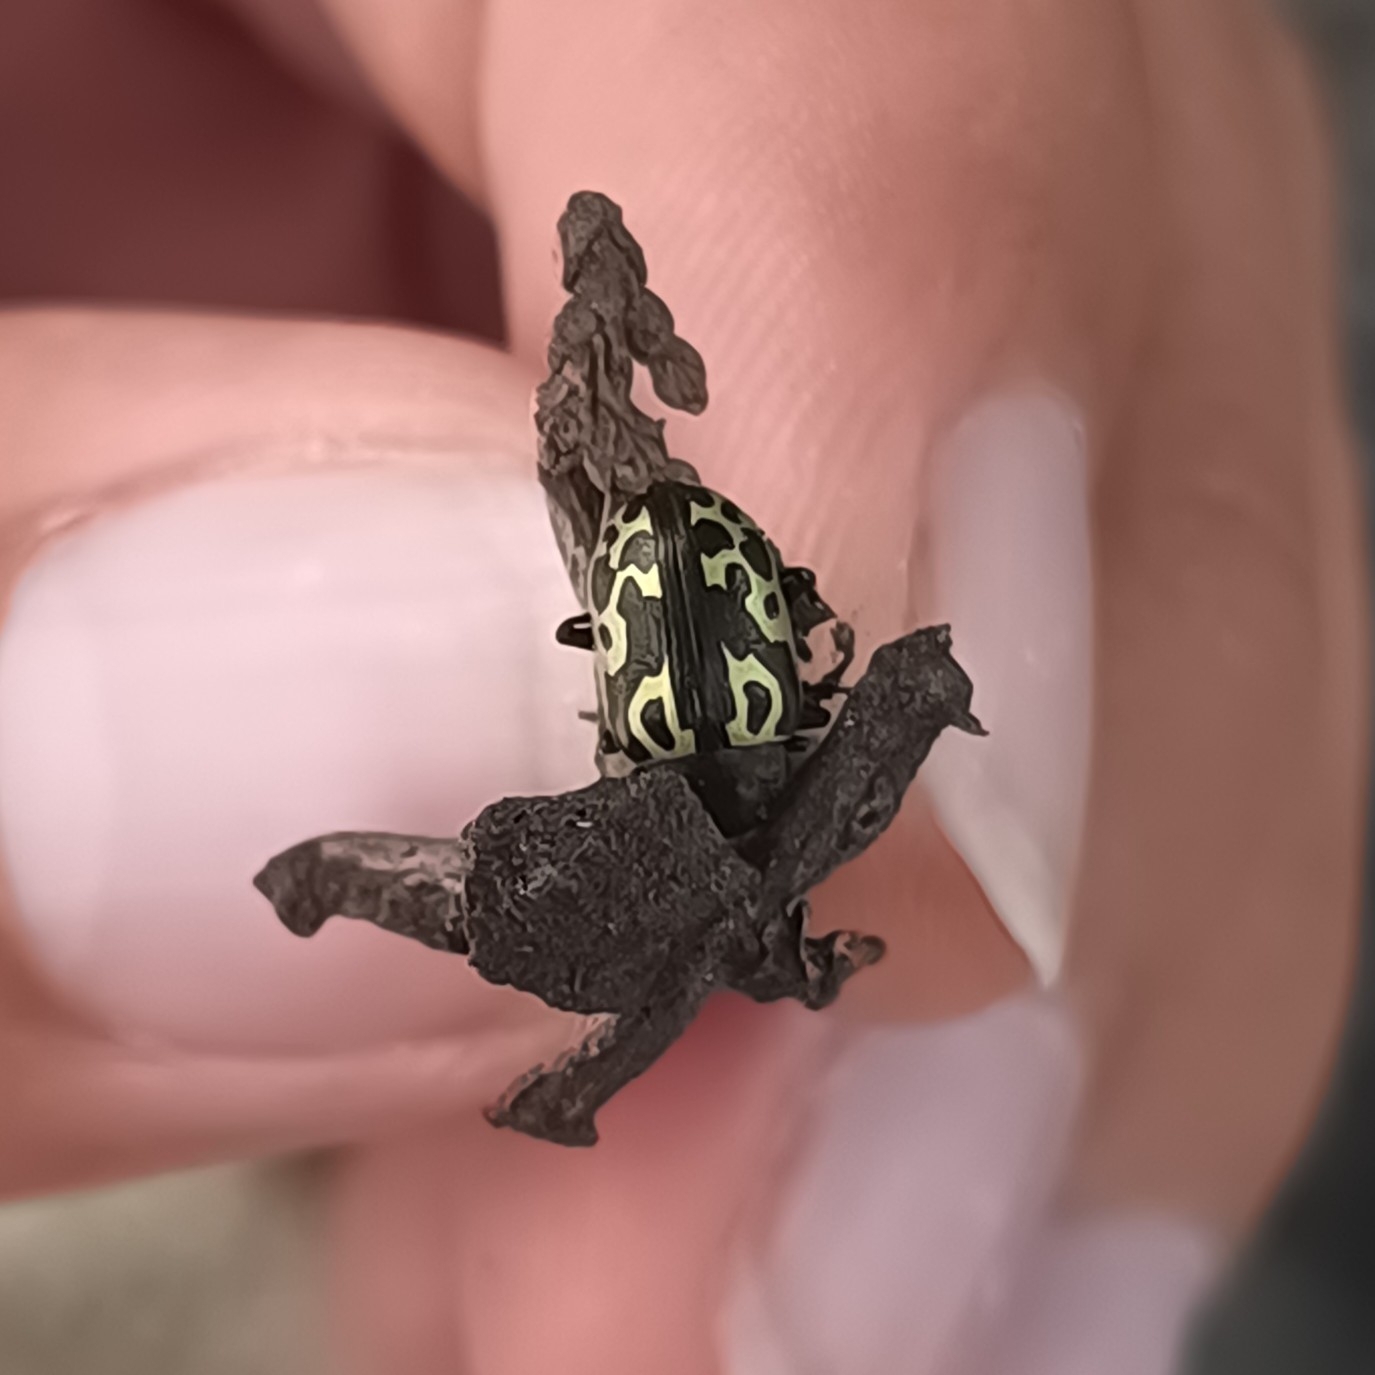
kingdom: Animalia
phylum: Arthropoda
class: Insecta
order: Coleoptera
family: Chrysomelidae
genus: Calligrapha
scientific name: Calligrapha
